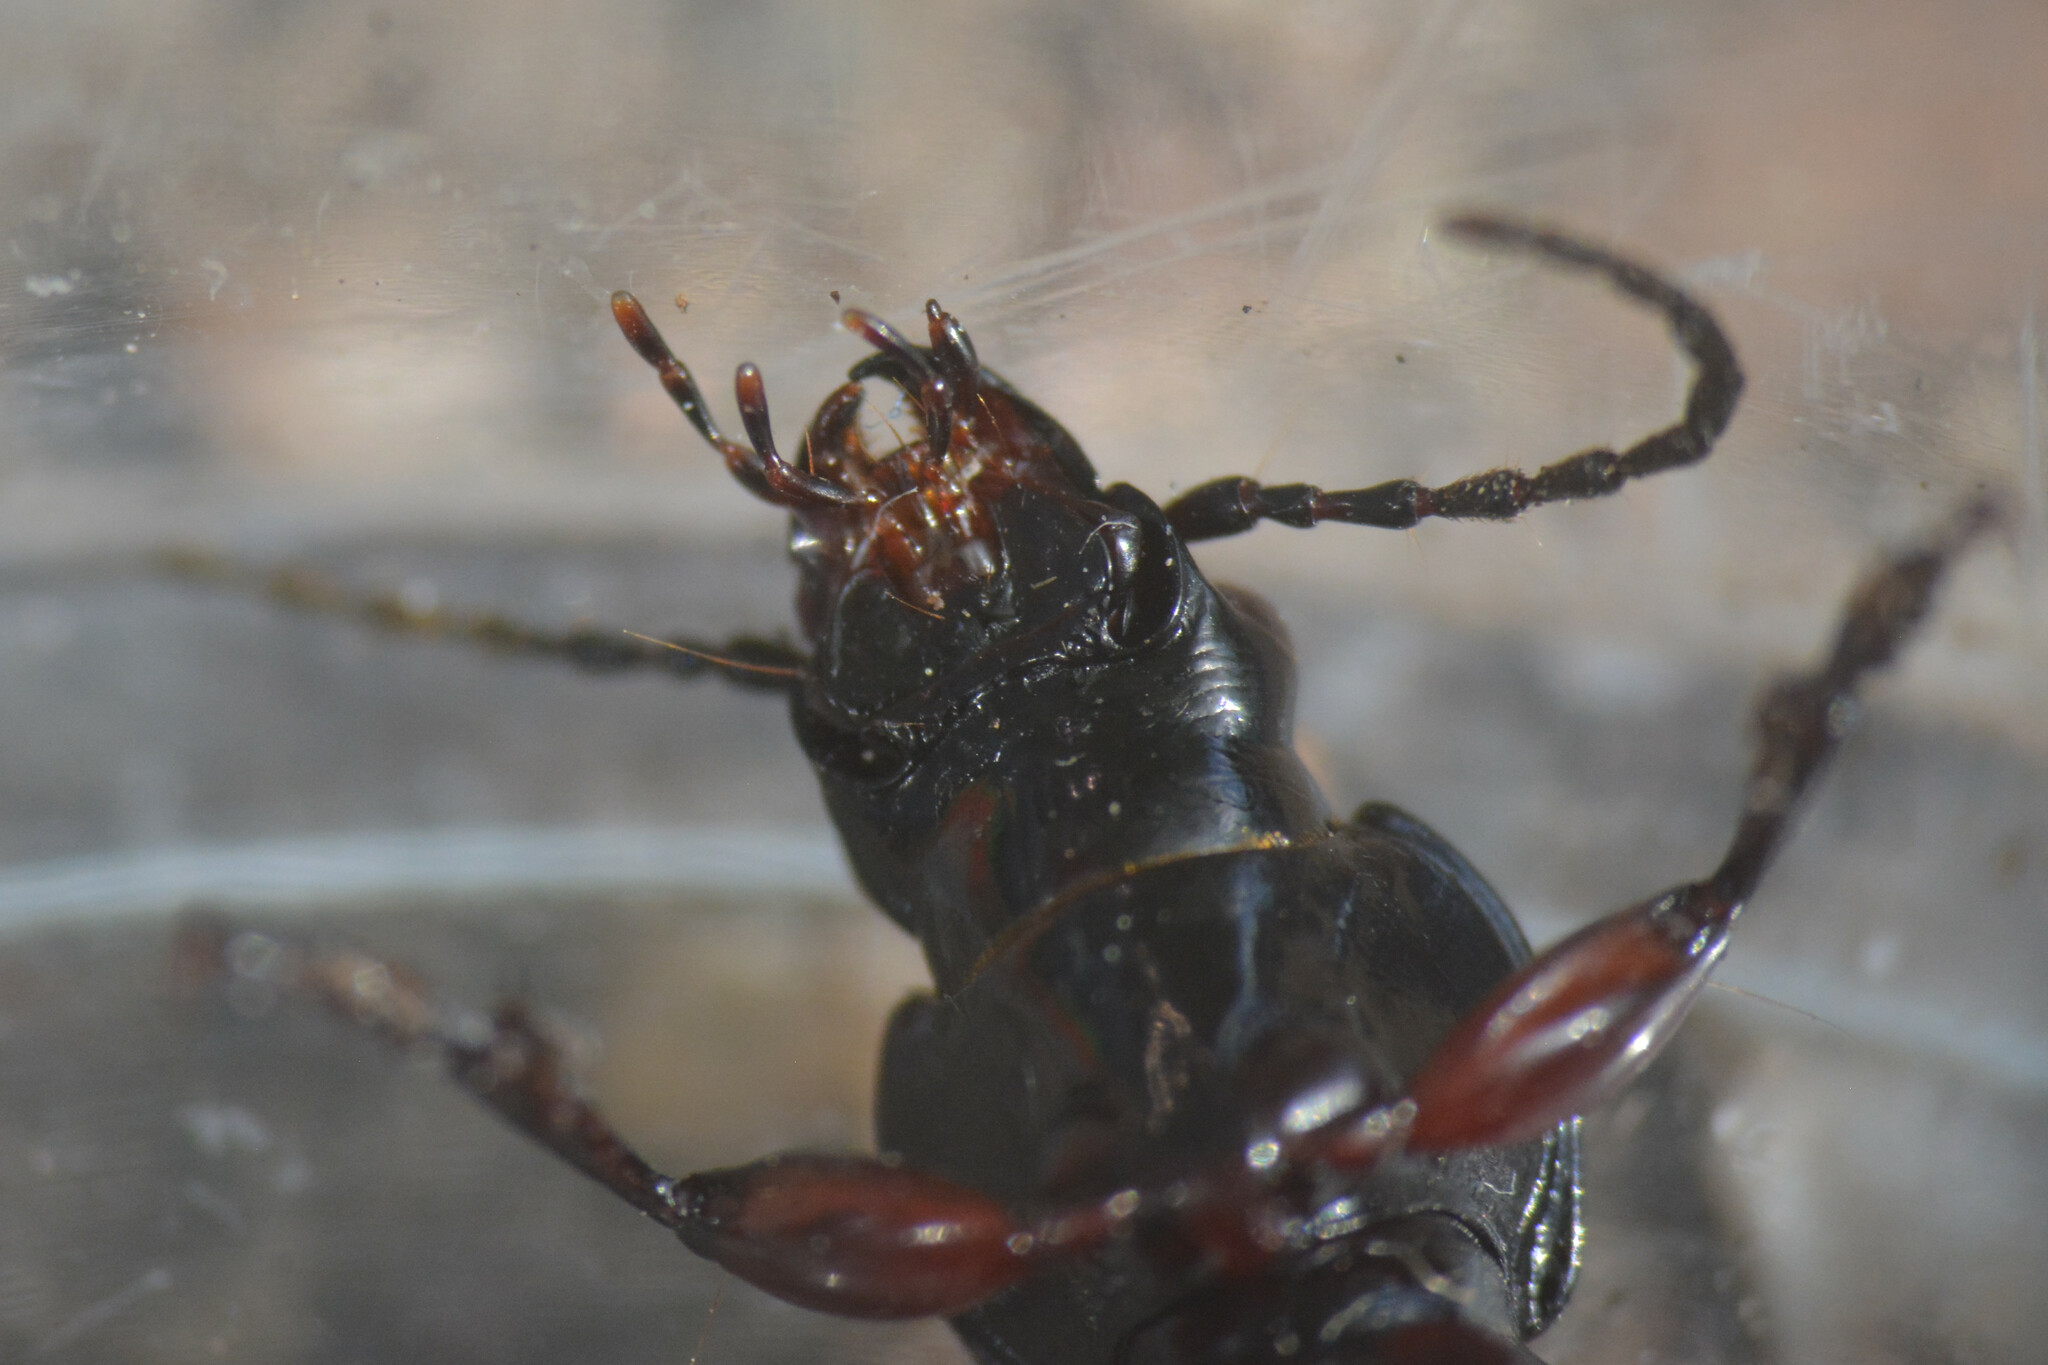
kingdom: Animalia
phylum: Arthropoda
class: Insecta
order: Coleoptera
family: Carabidae
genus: Pterostichus
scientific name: Pterostichus madidus
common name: Black clock
